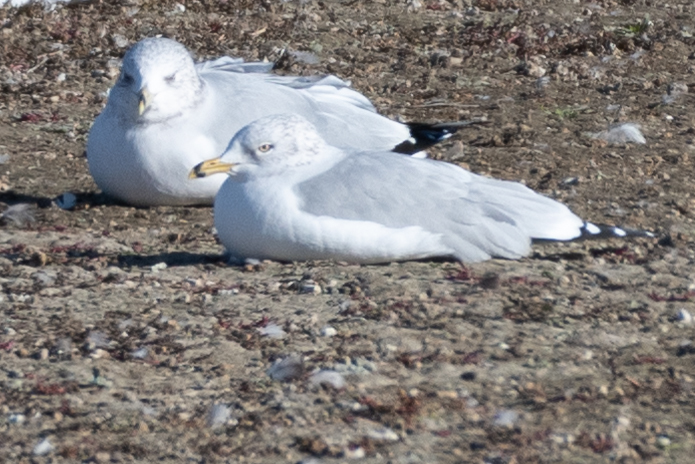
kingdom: Animalia
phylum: Chordata
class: Aves
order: Charadriiformes
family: Laridae
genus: Larus
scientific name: Larus delawarensis
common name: Ring-billed gull
